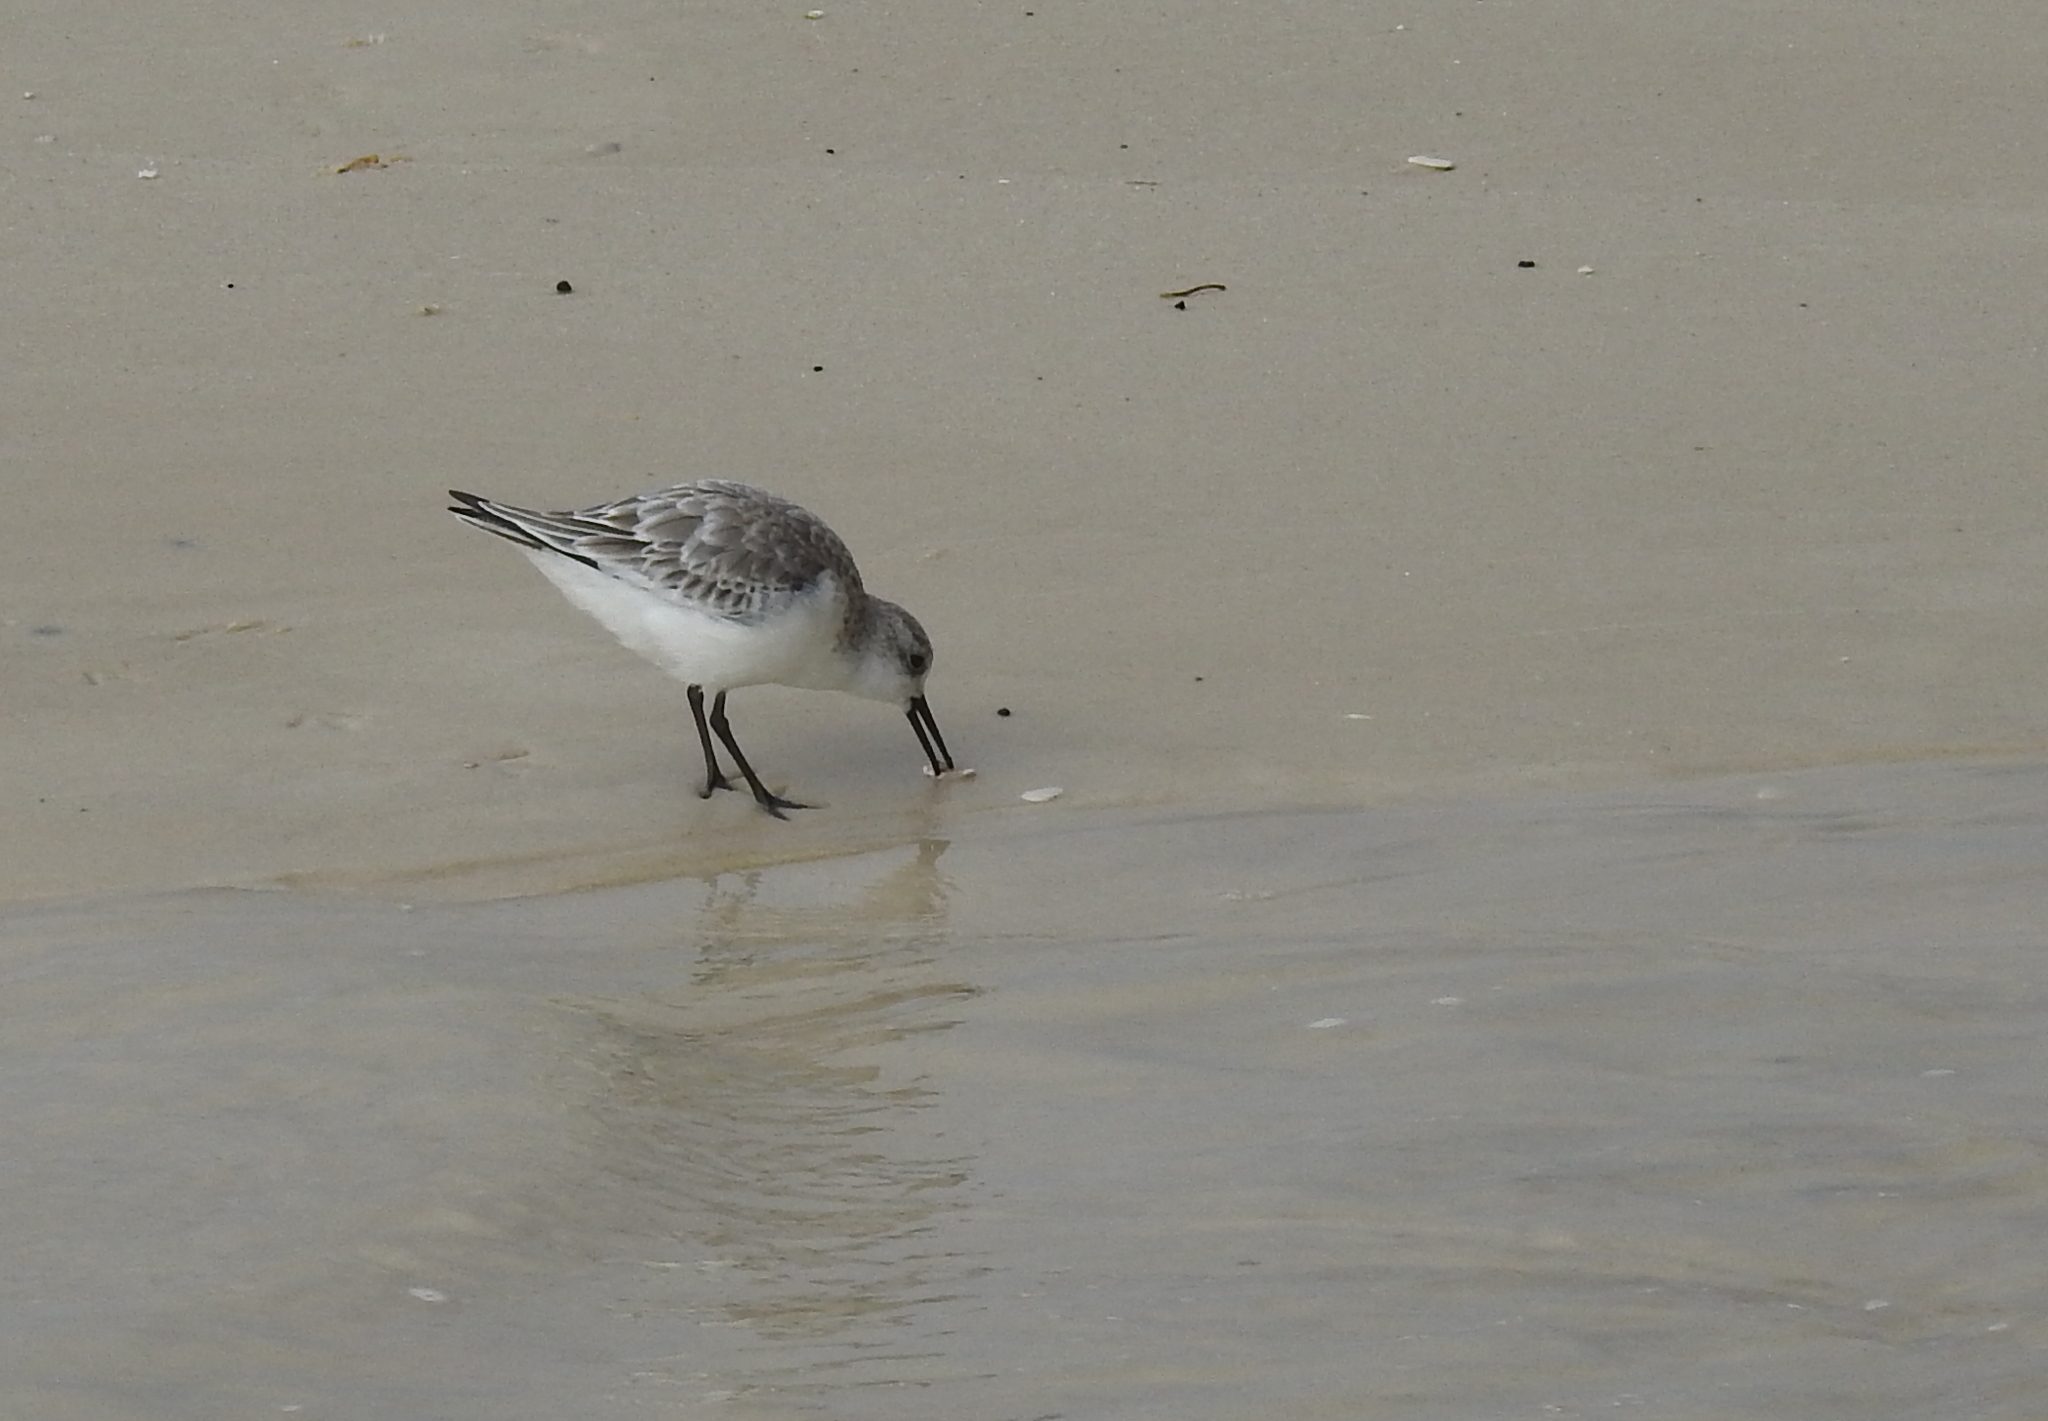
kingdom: Animalia
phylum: Chordata
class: Aves
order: Charadriiformes
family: Scolopacidae
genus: Calidris
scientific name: Calidris alba
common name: Sanderling
